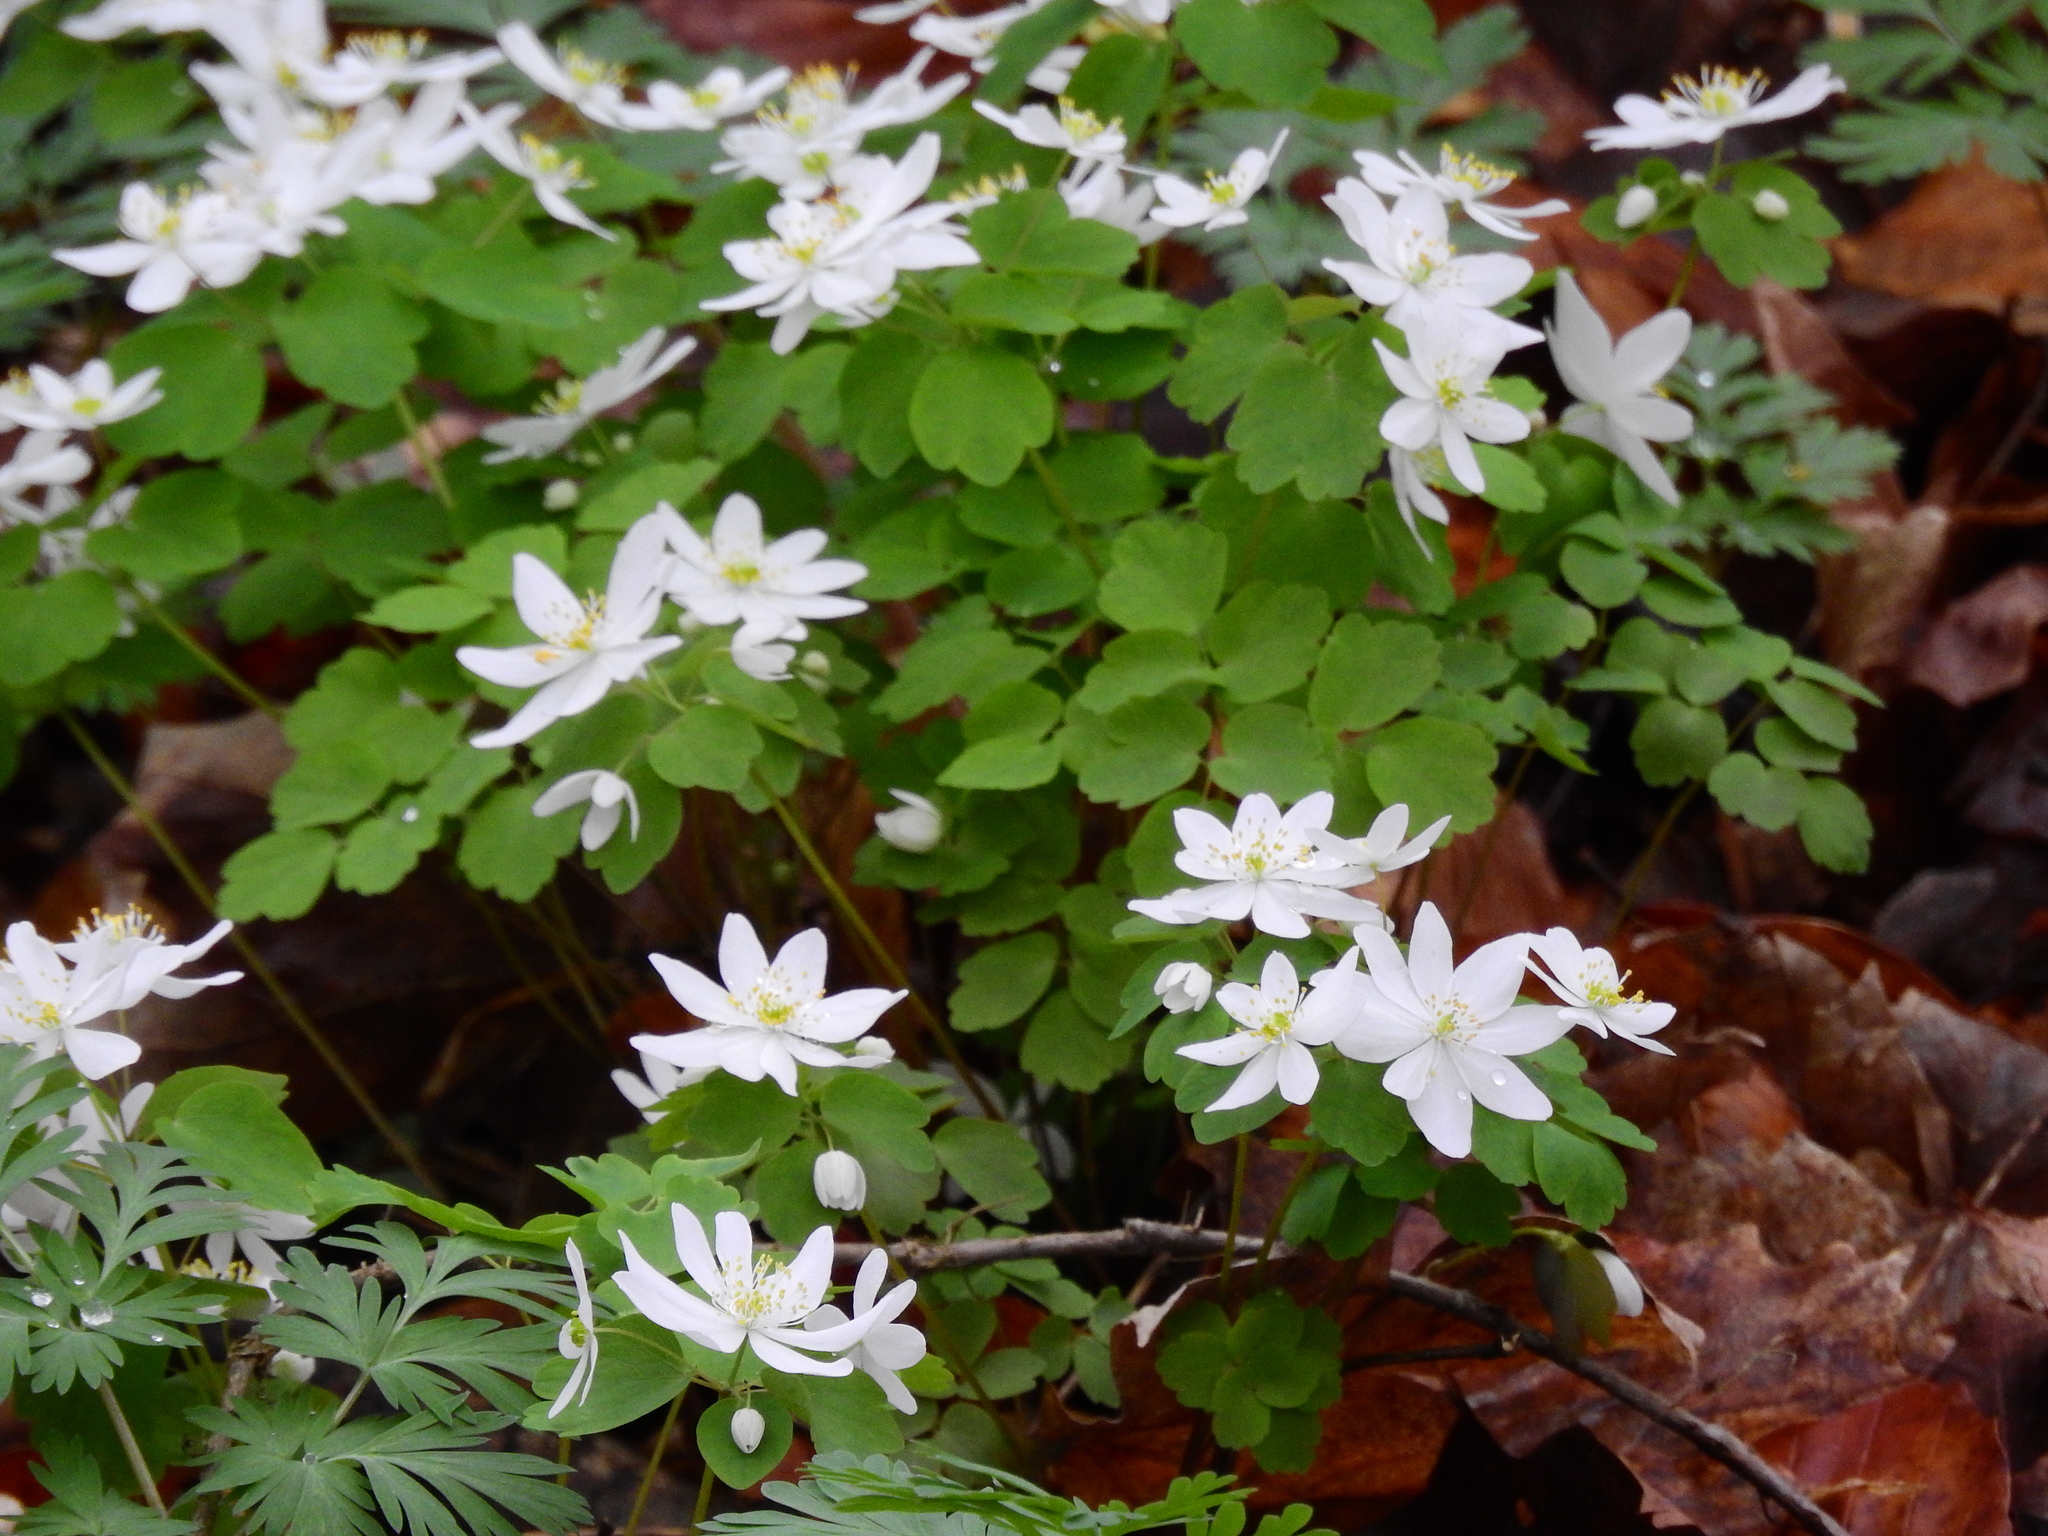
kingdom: Plantae
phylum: Tracheophyta
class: Magnoliopsida
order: Ranunculales
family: Ranunculaceae
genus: Thalictrum
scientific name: Thalictrum thalictroides
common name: Rue-anemone
